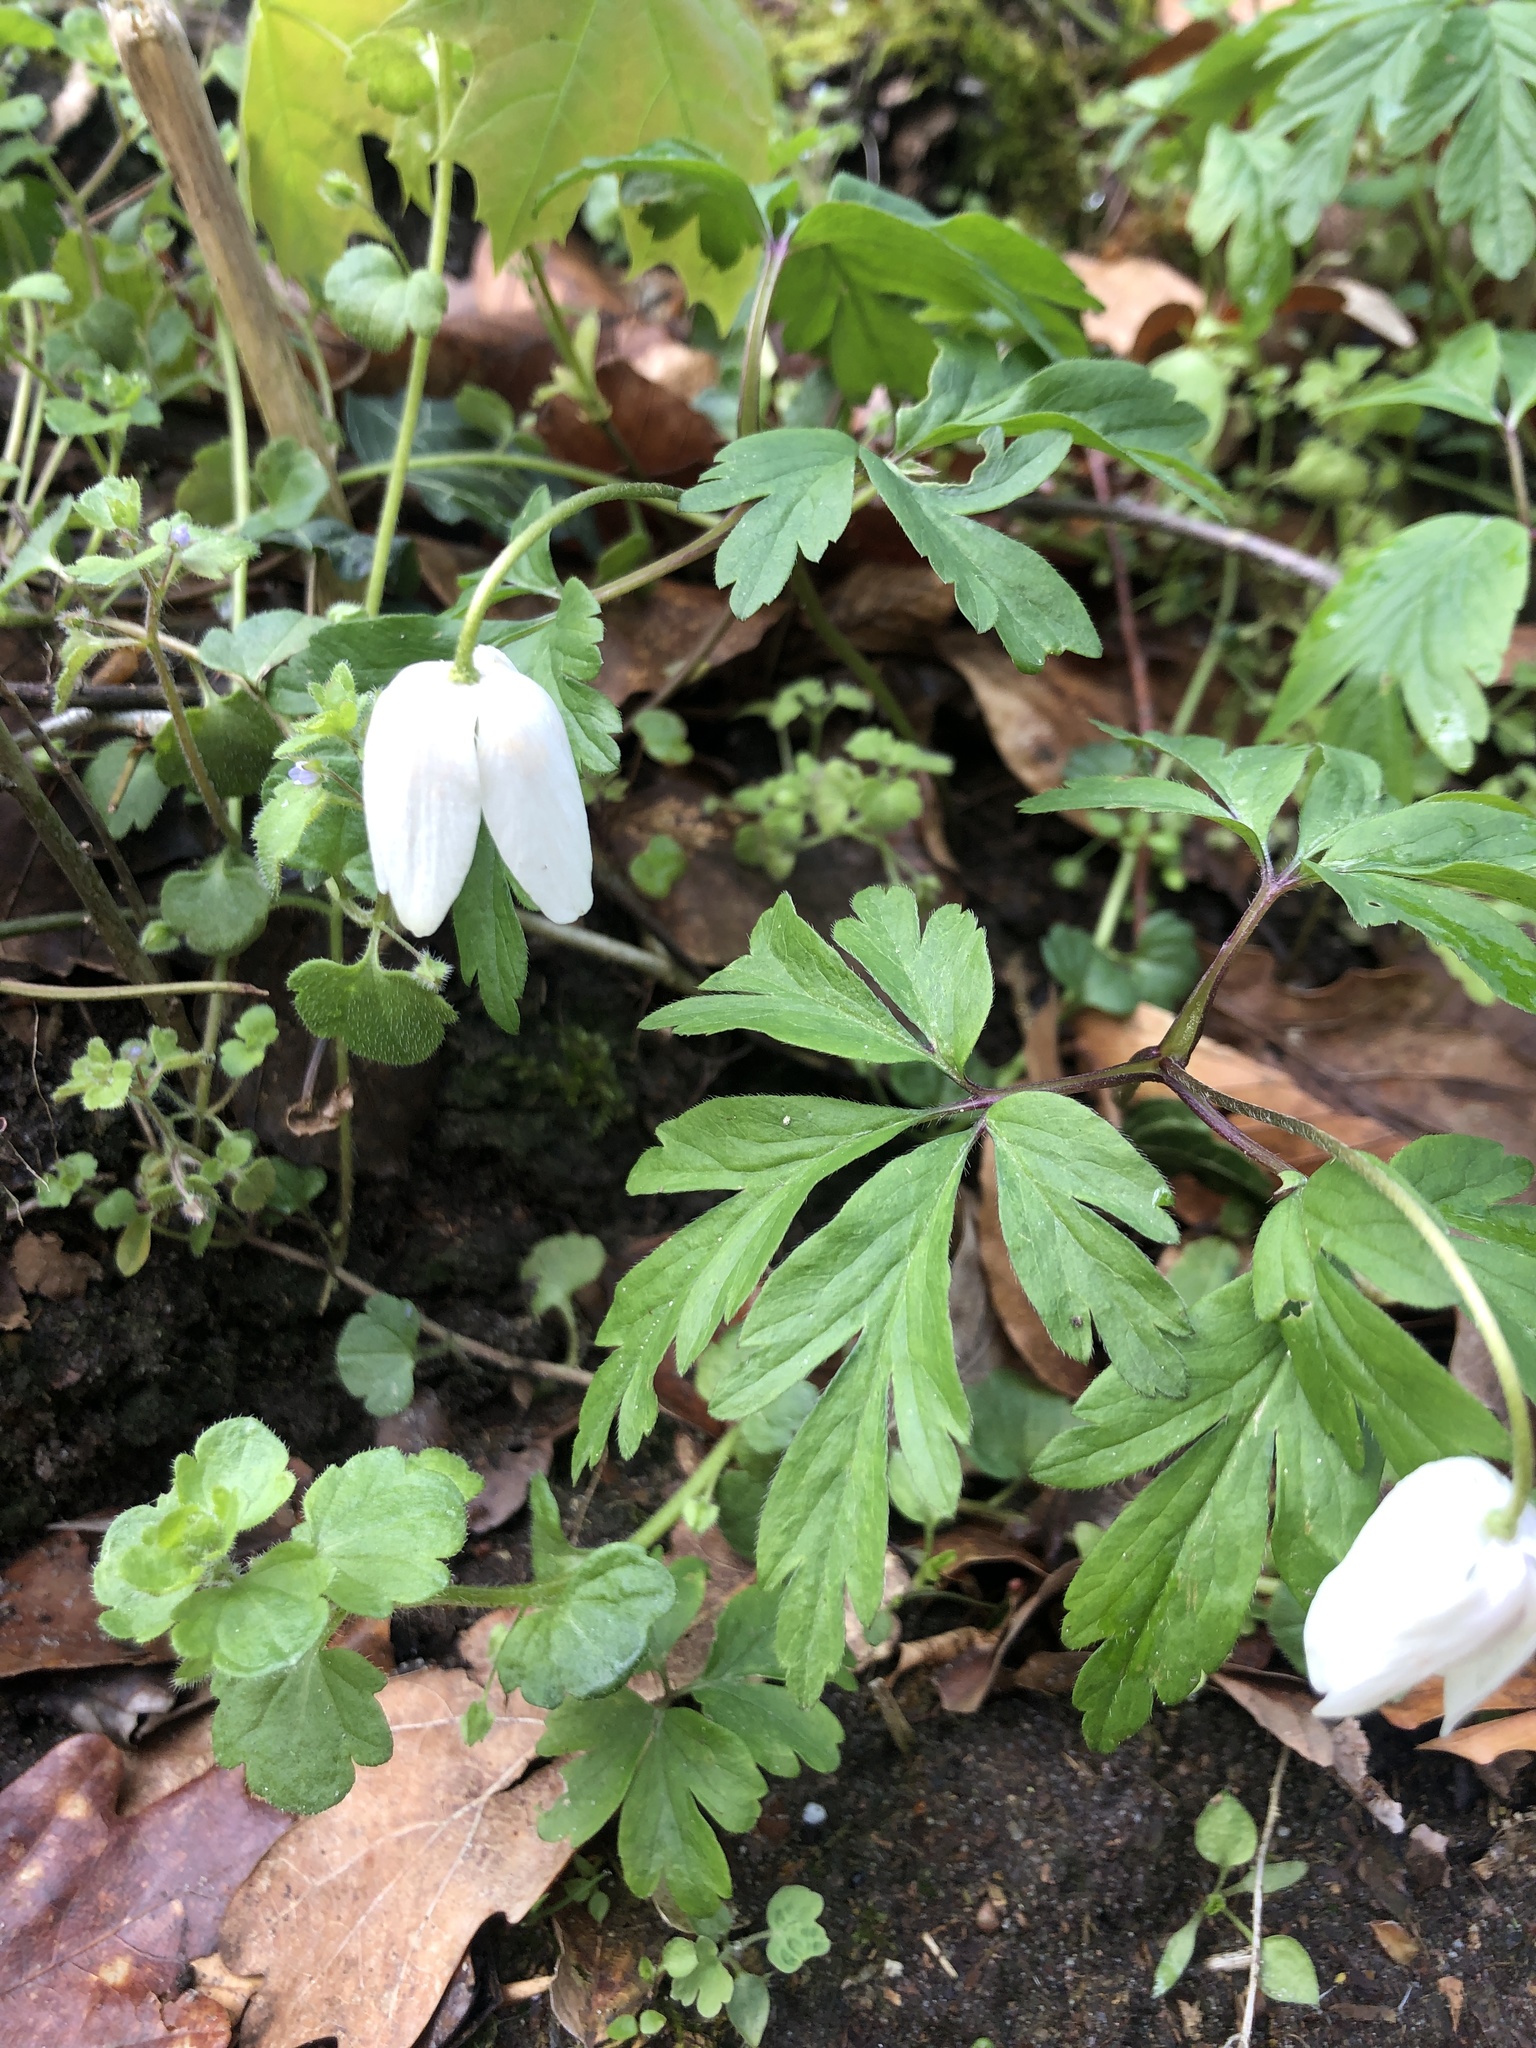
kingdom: Plantae
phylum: Tracheophyta
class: Magnoliopsida
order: Ranunculales
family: Ranunculaceae
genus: Anemone
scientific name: Anemone nemorosa
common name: Wood anemone
